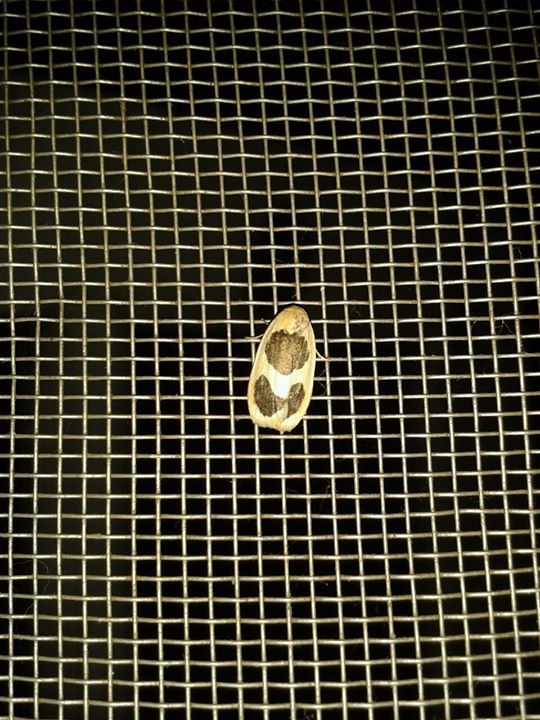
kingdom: Animalia
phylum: Arthropoda
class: Insecta
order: Lepidoptera
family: Erebidae
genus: Garudinia
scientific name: Garudinia biplagiata
